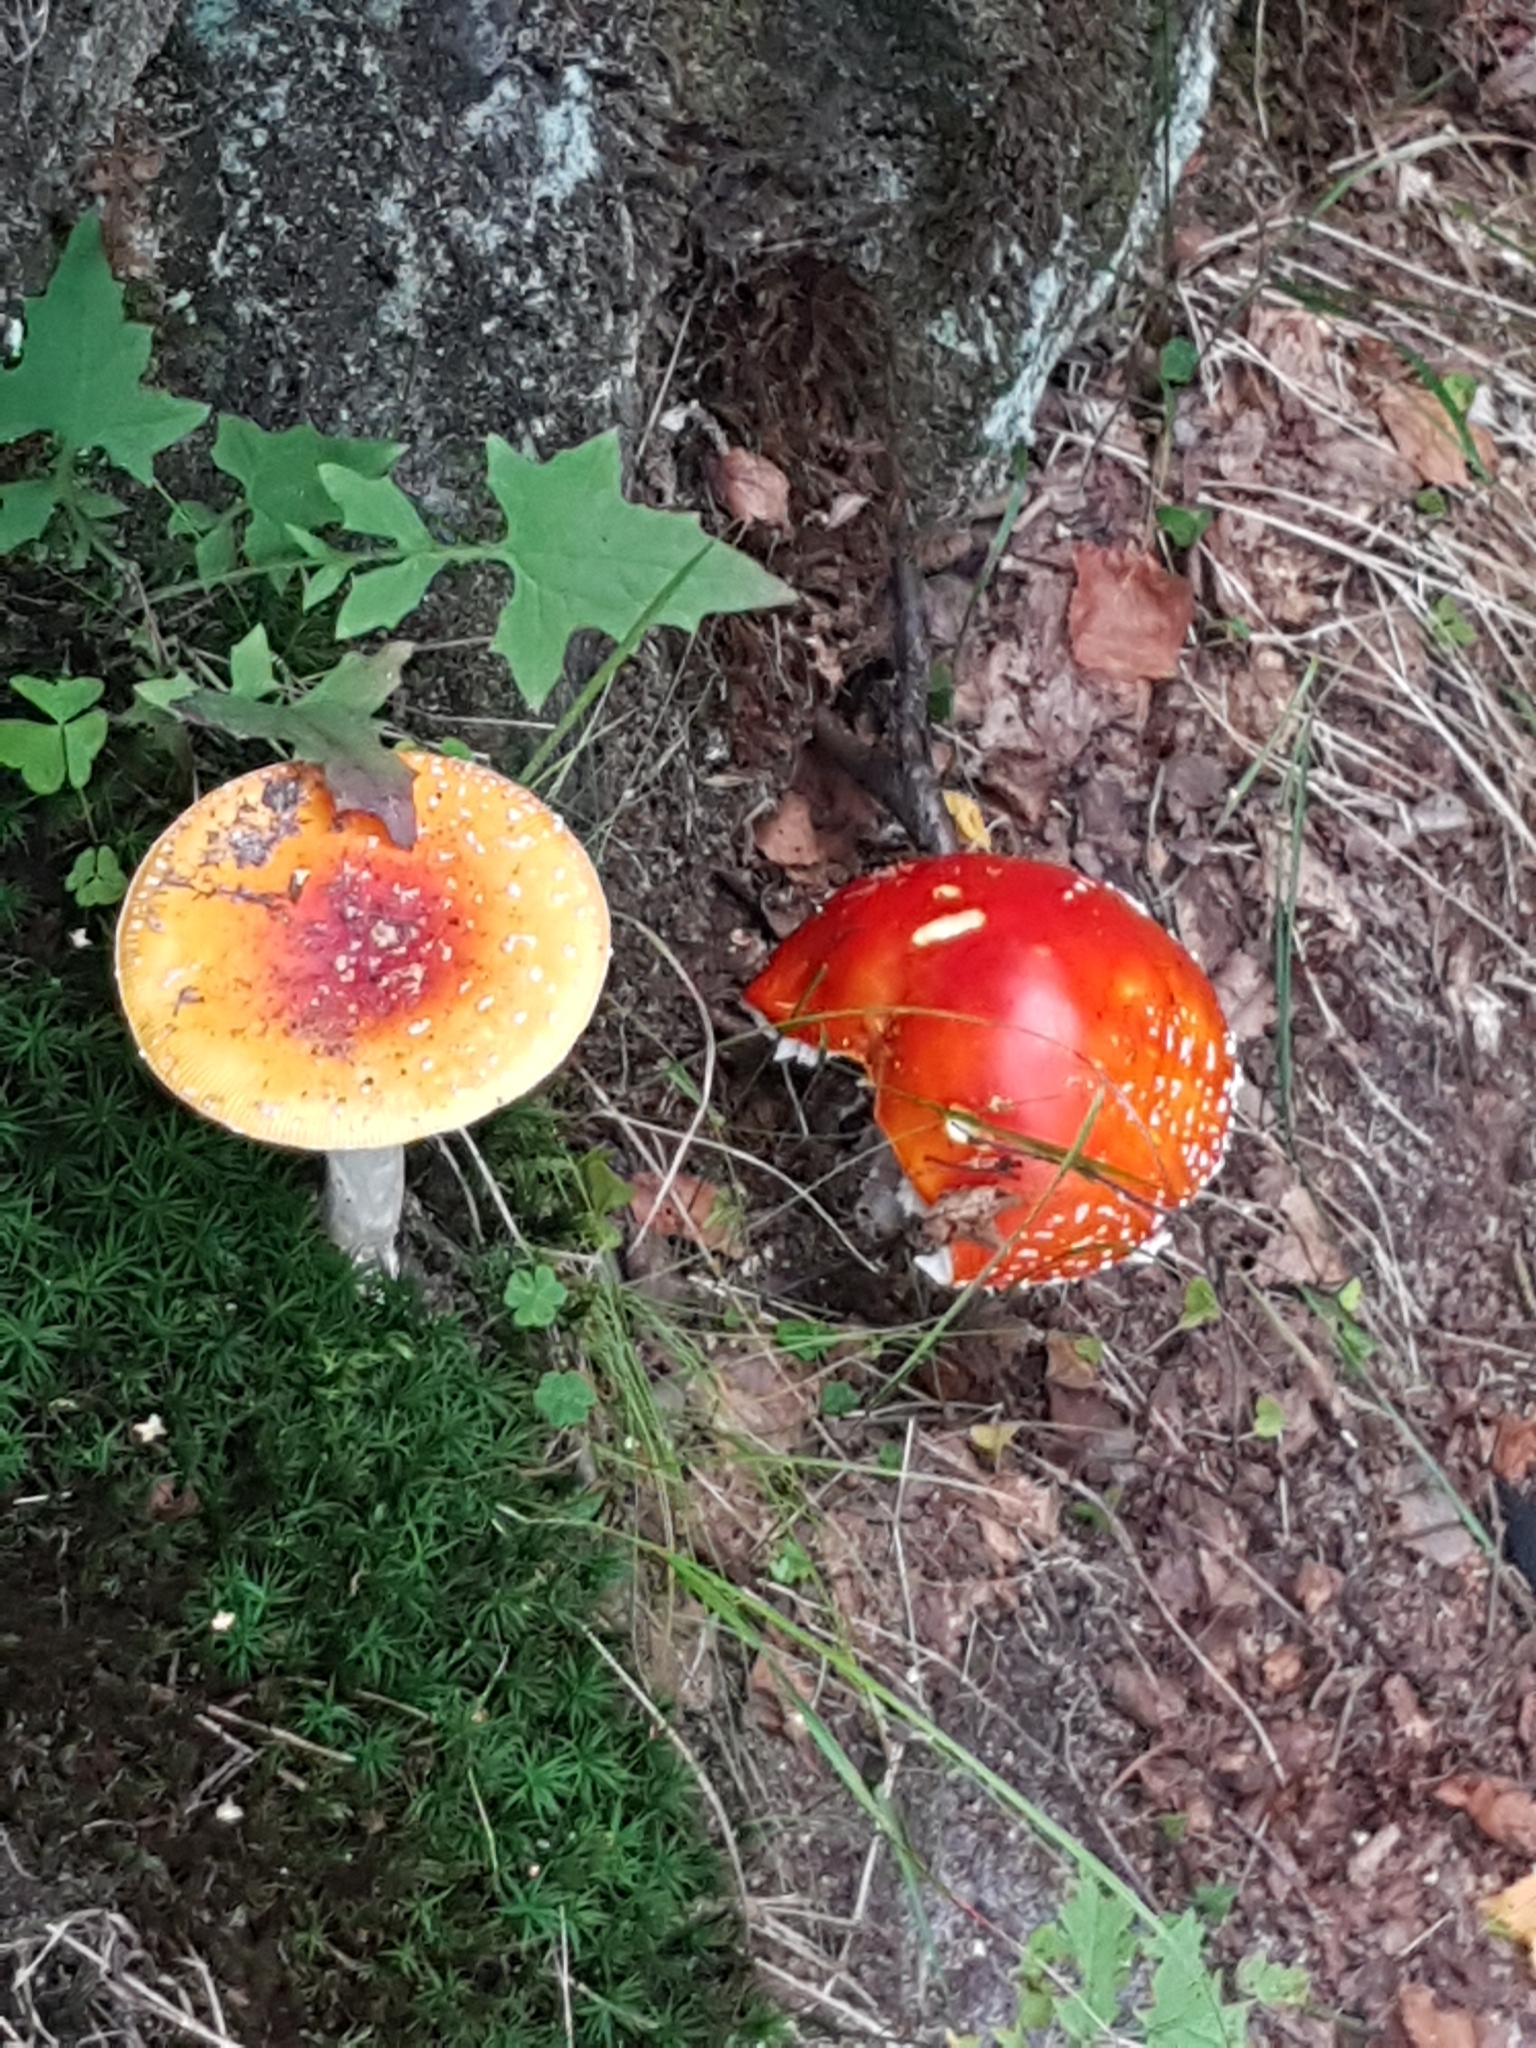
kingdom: Fungi
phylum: Basidiomycota
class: Agaricomycetes
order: Agaricales
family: Amanitaceae
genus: Amanita
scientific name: Amanita muscaria
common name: Fly agaric
